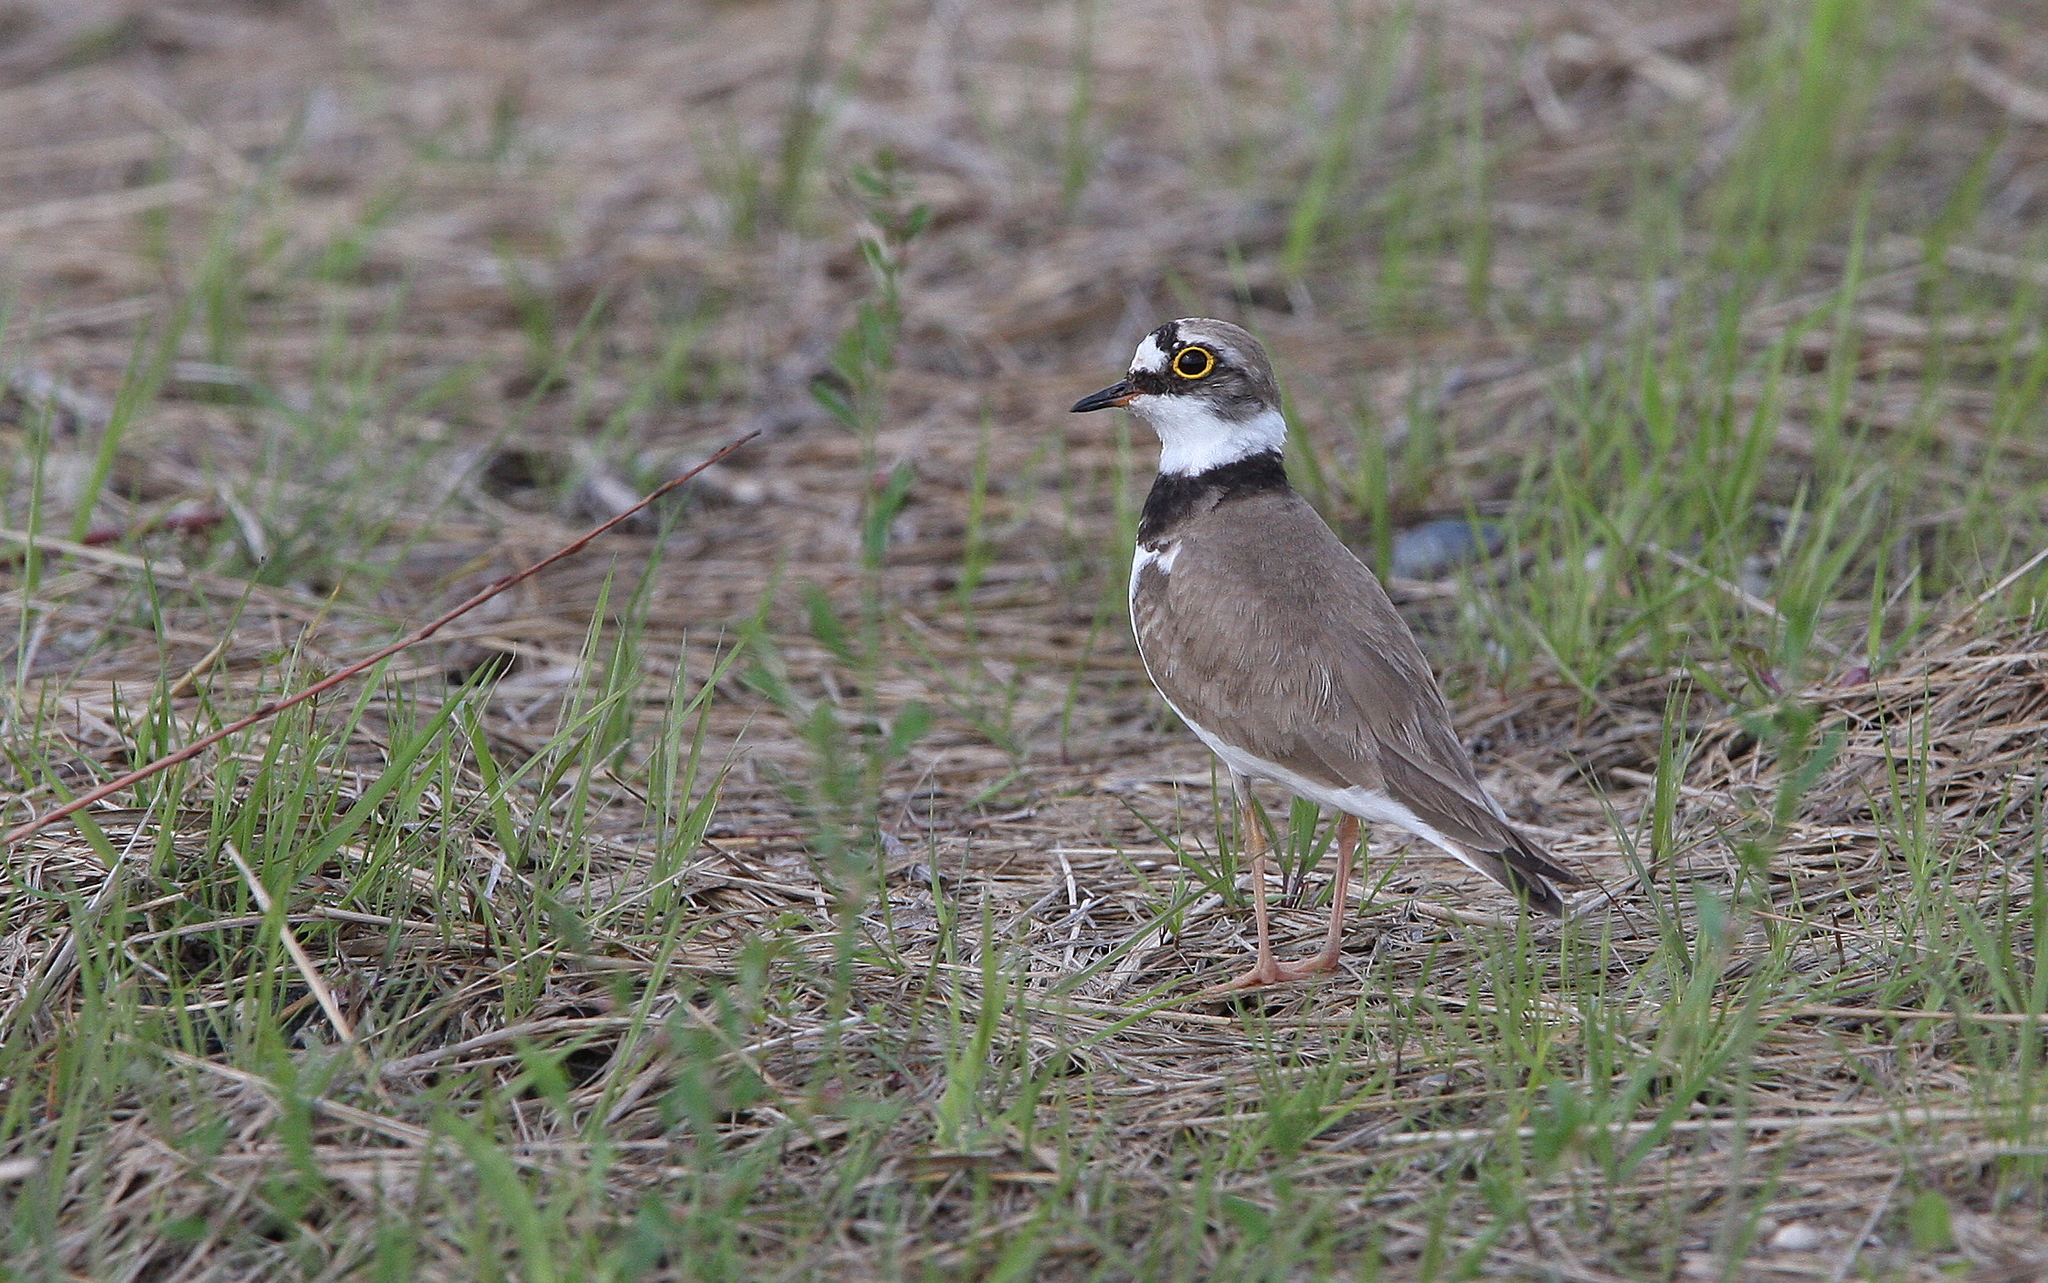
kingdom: Animalia
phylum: Chordata
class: Aves
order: Charadriiformes
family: Charadriidae
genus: Charadrius
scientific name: Charadrius dubius
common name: Little ringed plover
